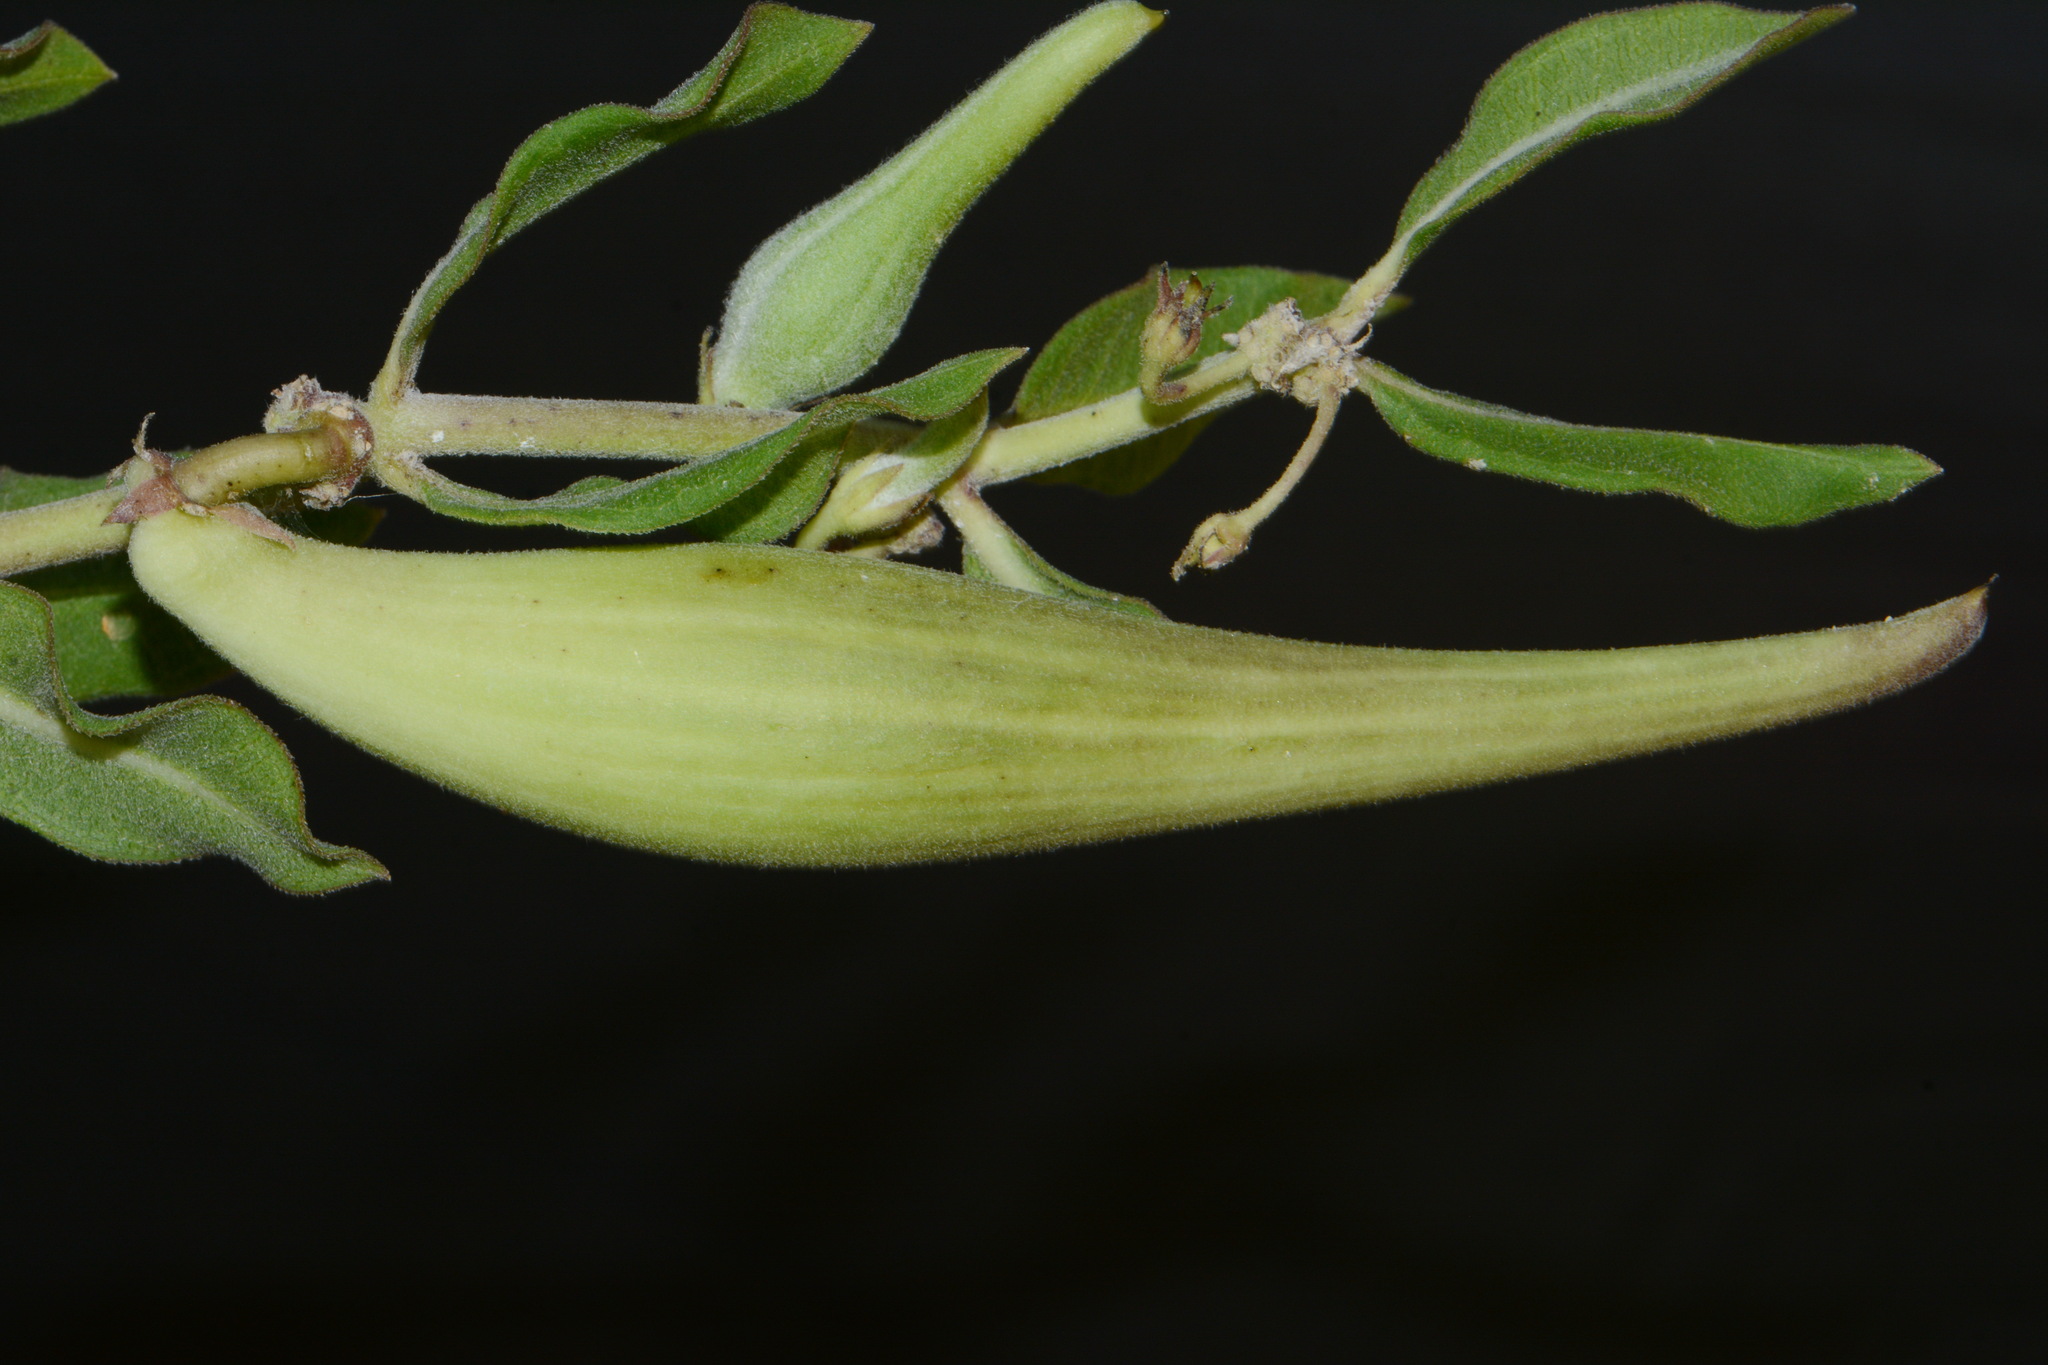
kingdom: Plantae
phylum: Tracheophyta
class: Magnoliopsida
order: Gentianales
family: Apocynaceae
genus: Asclepias
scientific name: Asclepias viridiflora
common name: Green comet milkweed
